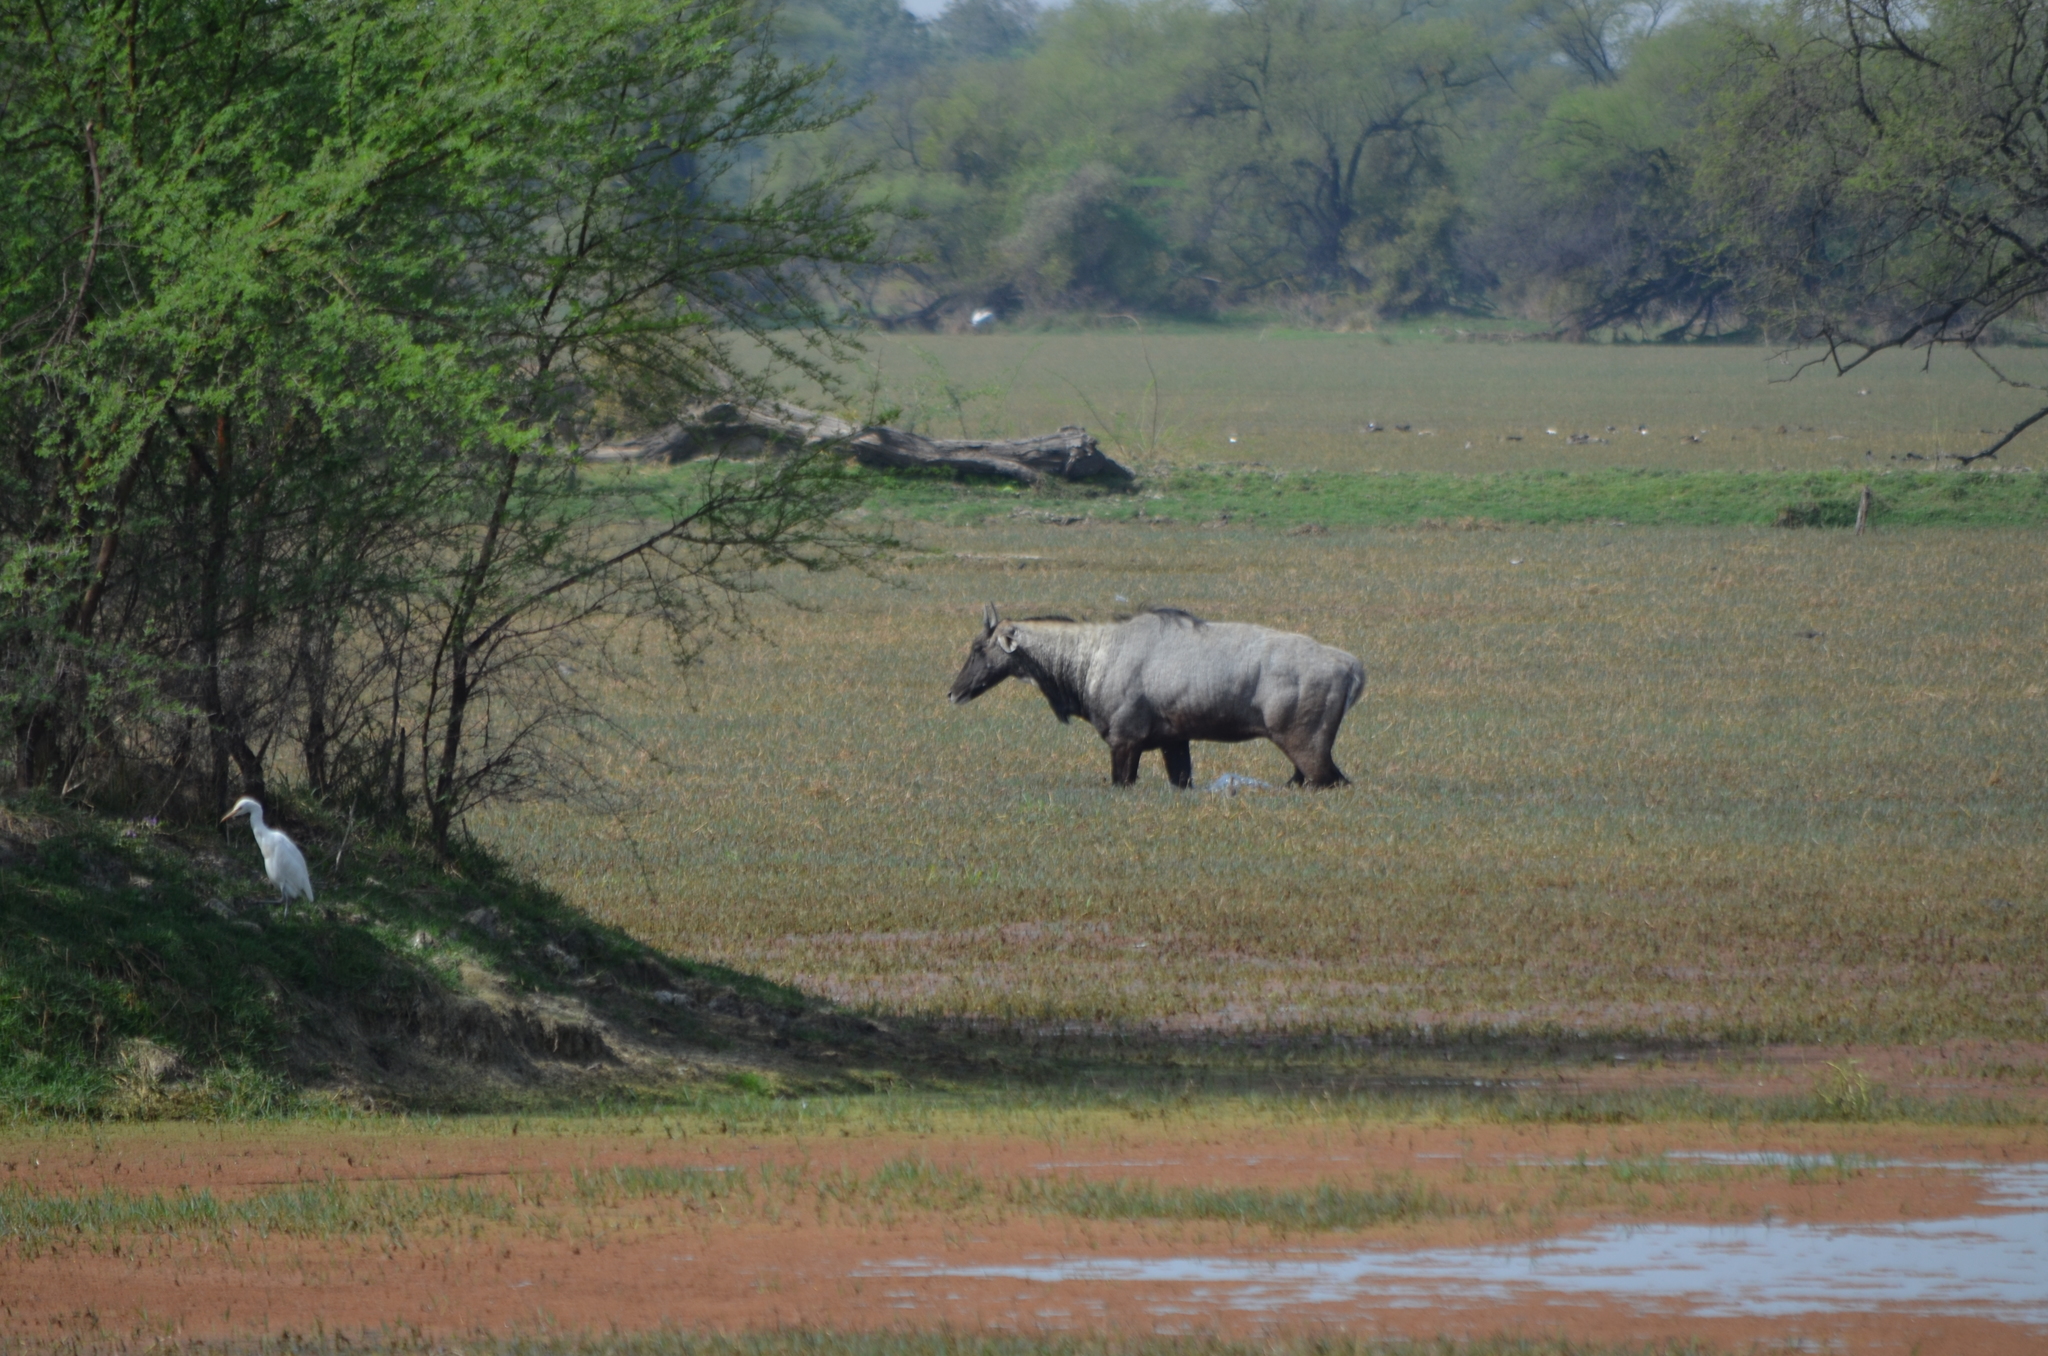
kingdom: Animalia
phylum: Chordata
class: Mammalia
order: Artiodactyla
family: Bovidae
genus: Boselaphus
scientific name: Boselaphus tragocamelus
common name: Nilgai
